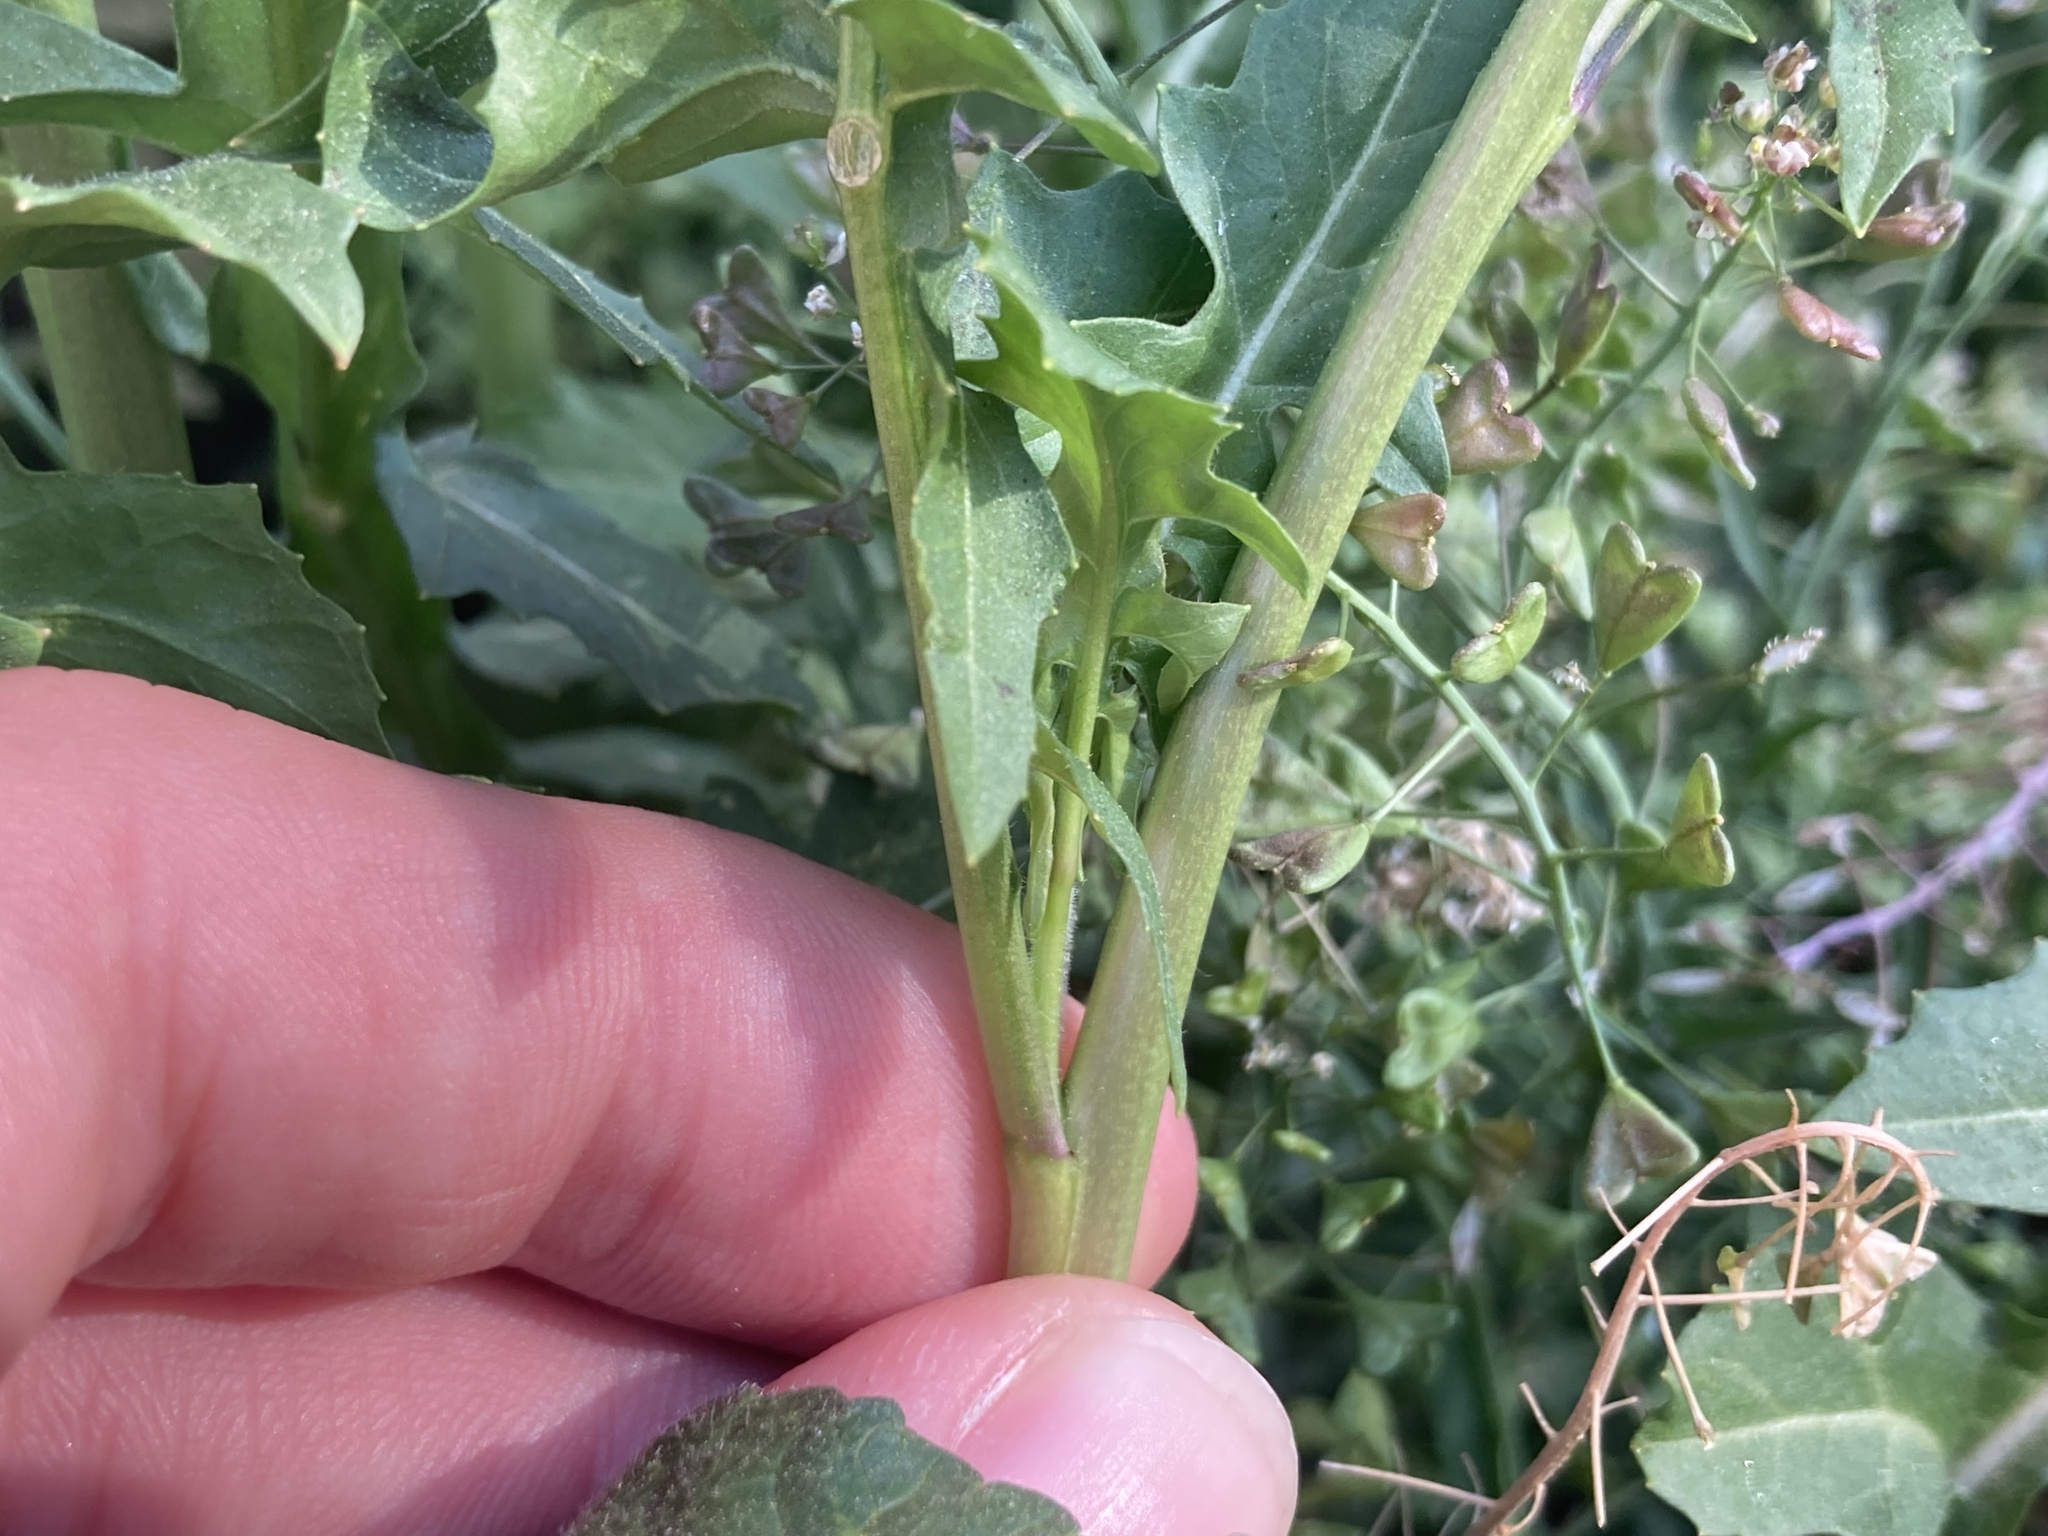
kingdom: Plantae
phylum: Tracheophyta
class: Magnoliopsida
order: Brassicales
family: Brassicaceae
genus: Sisymbrium
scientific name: Sisymbrium irio
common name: London rocket
